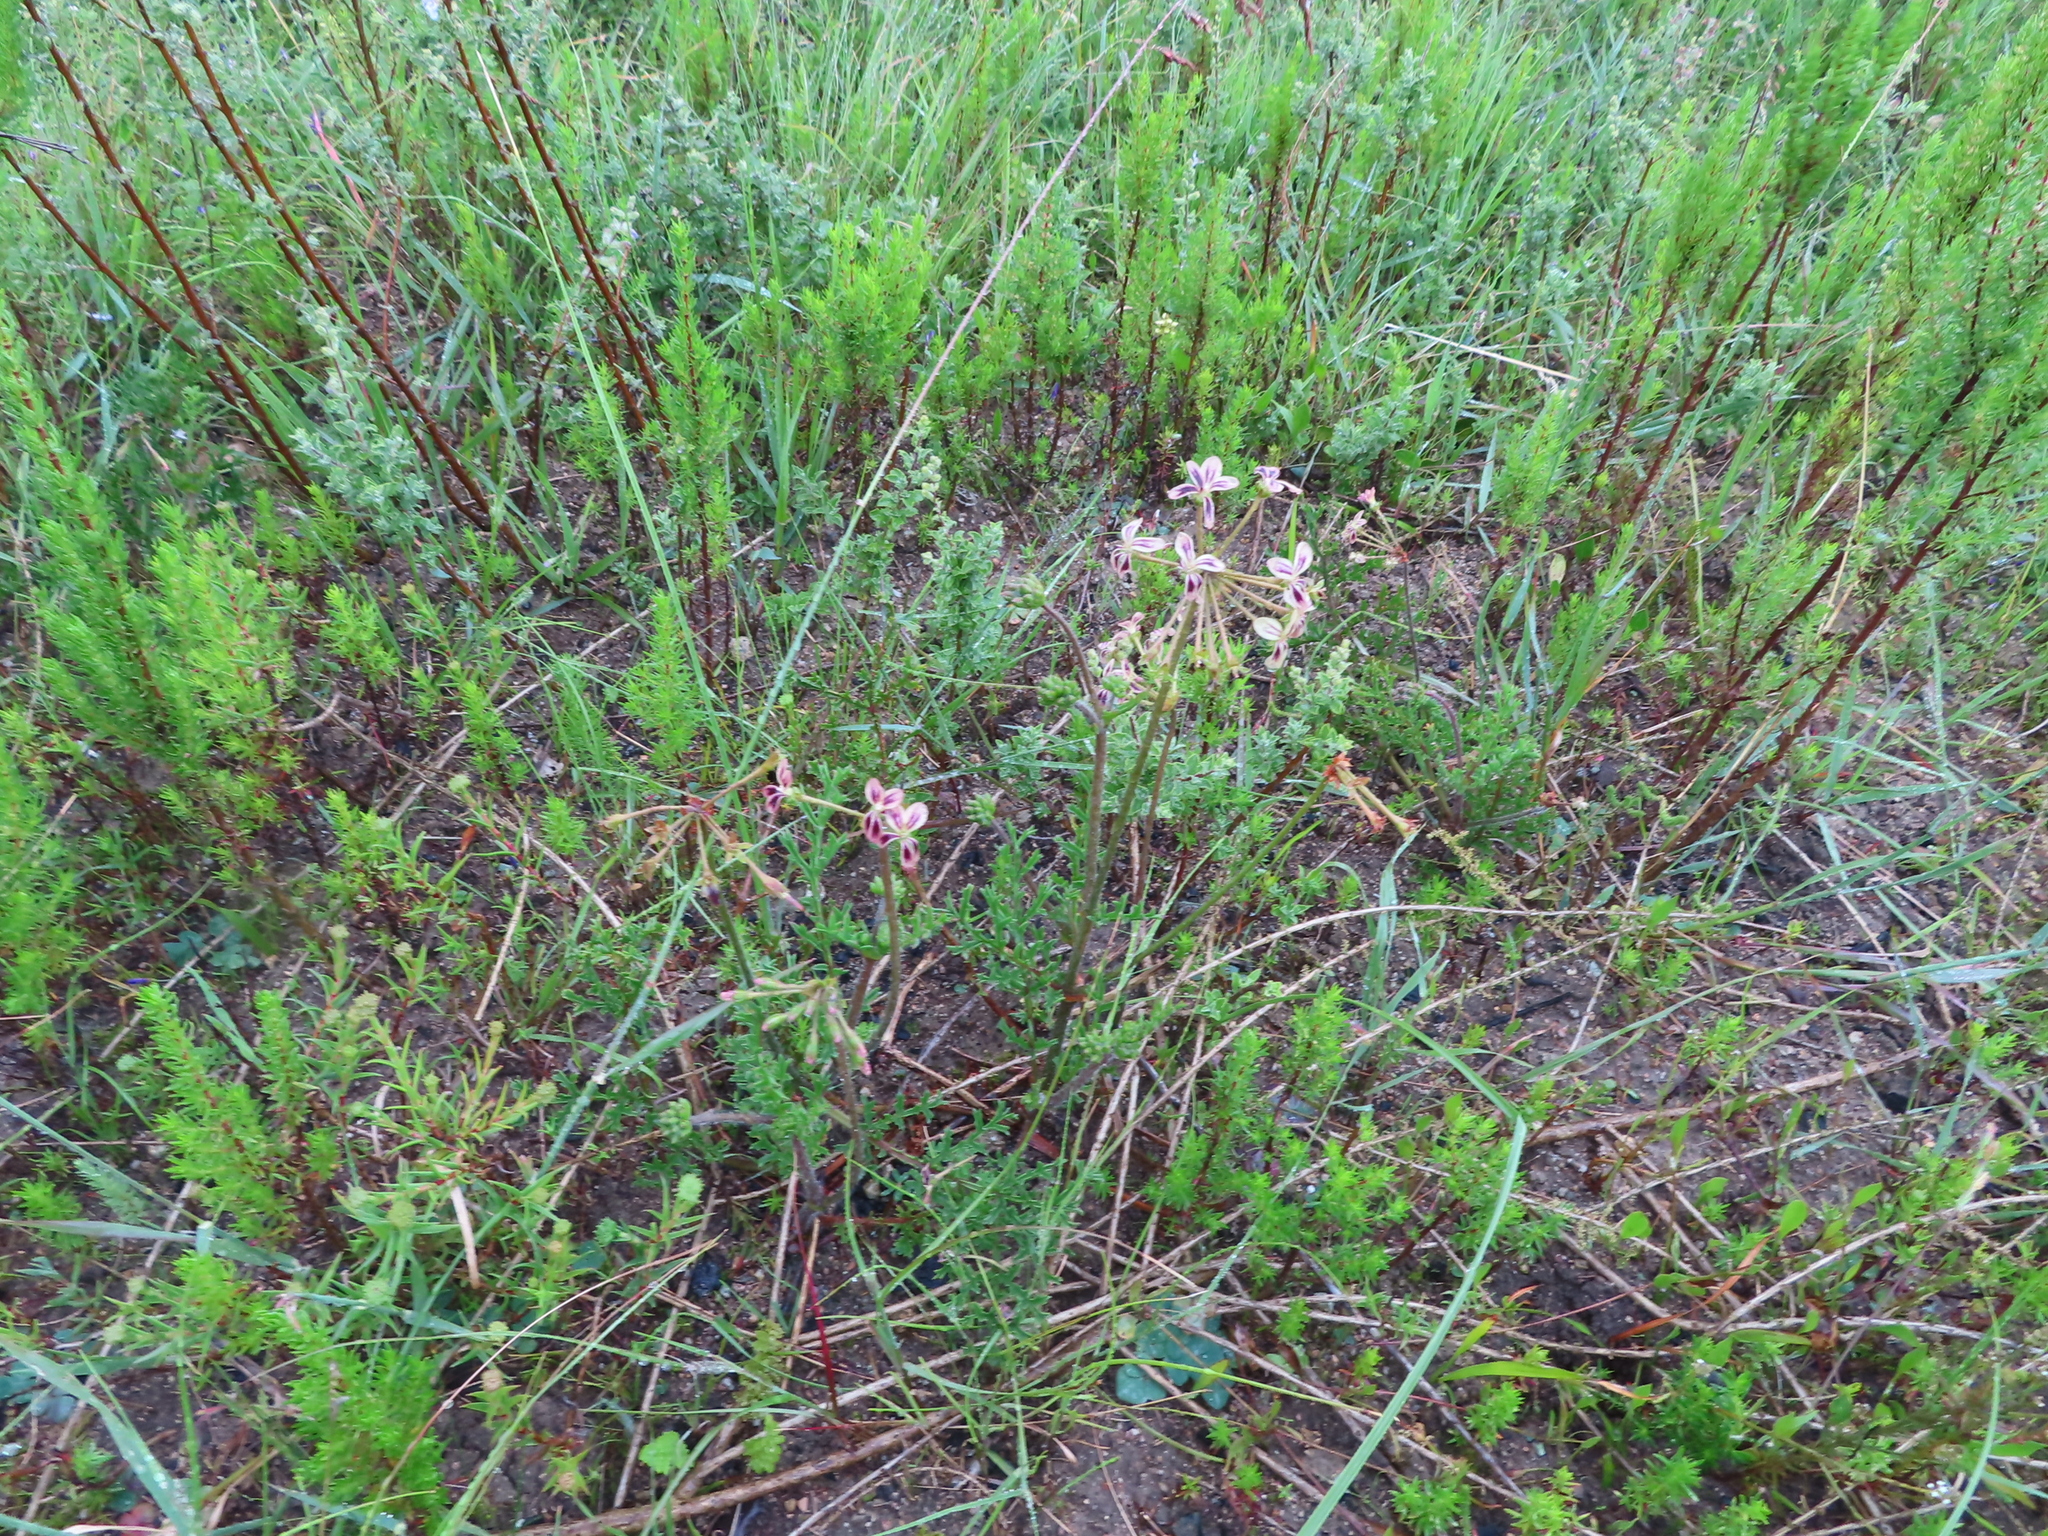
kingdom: Plantae
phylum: Tracheophyta
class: Magnoliopsida
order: Geraniales
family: Geraniaceae
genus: Pelargonium
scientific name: Pelargonium triste
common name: Night-scent pelargonium
